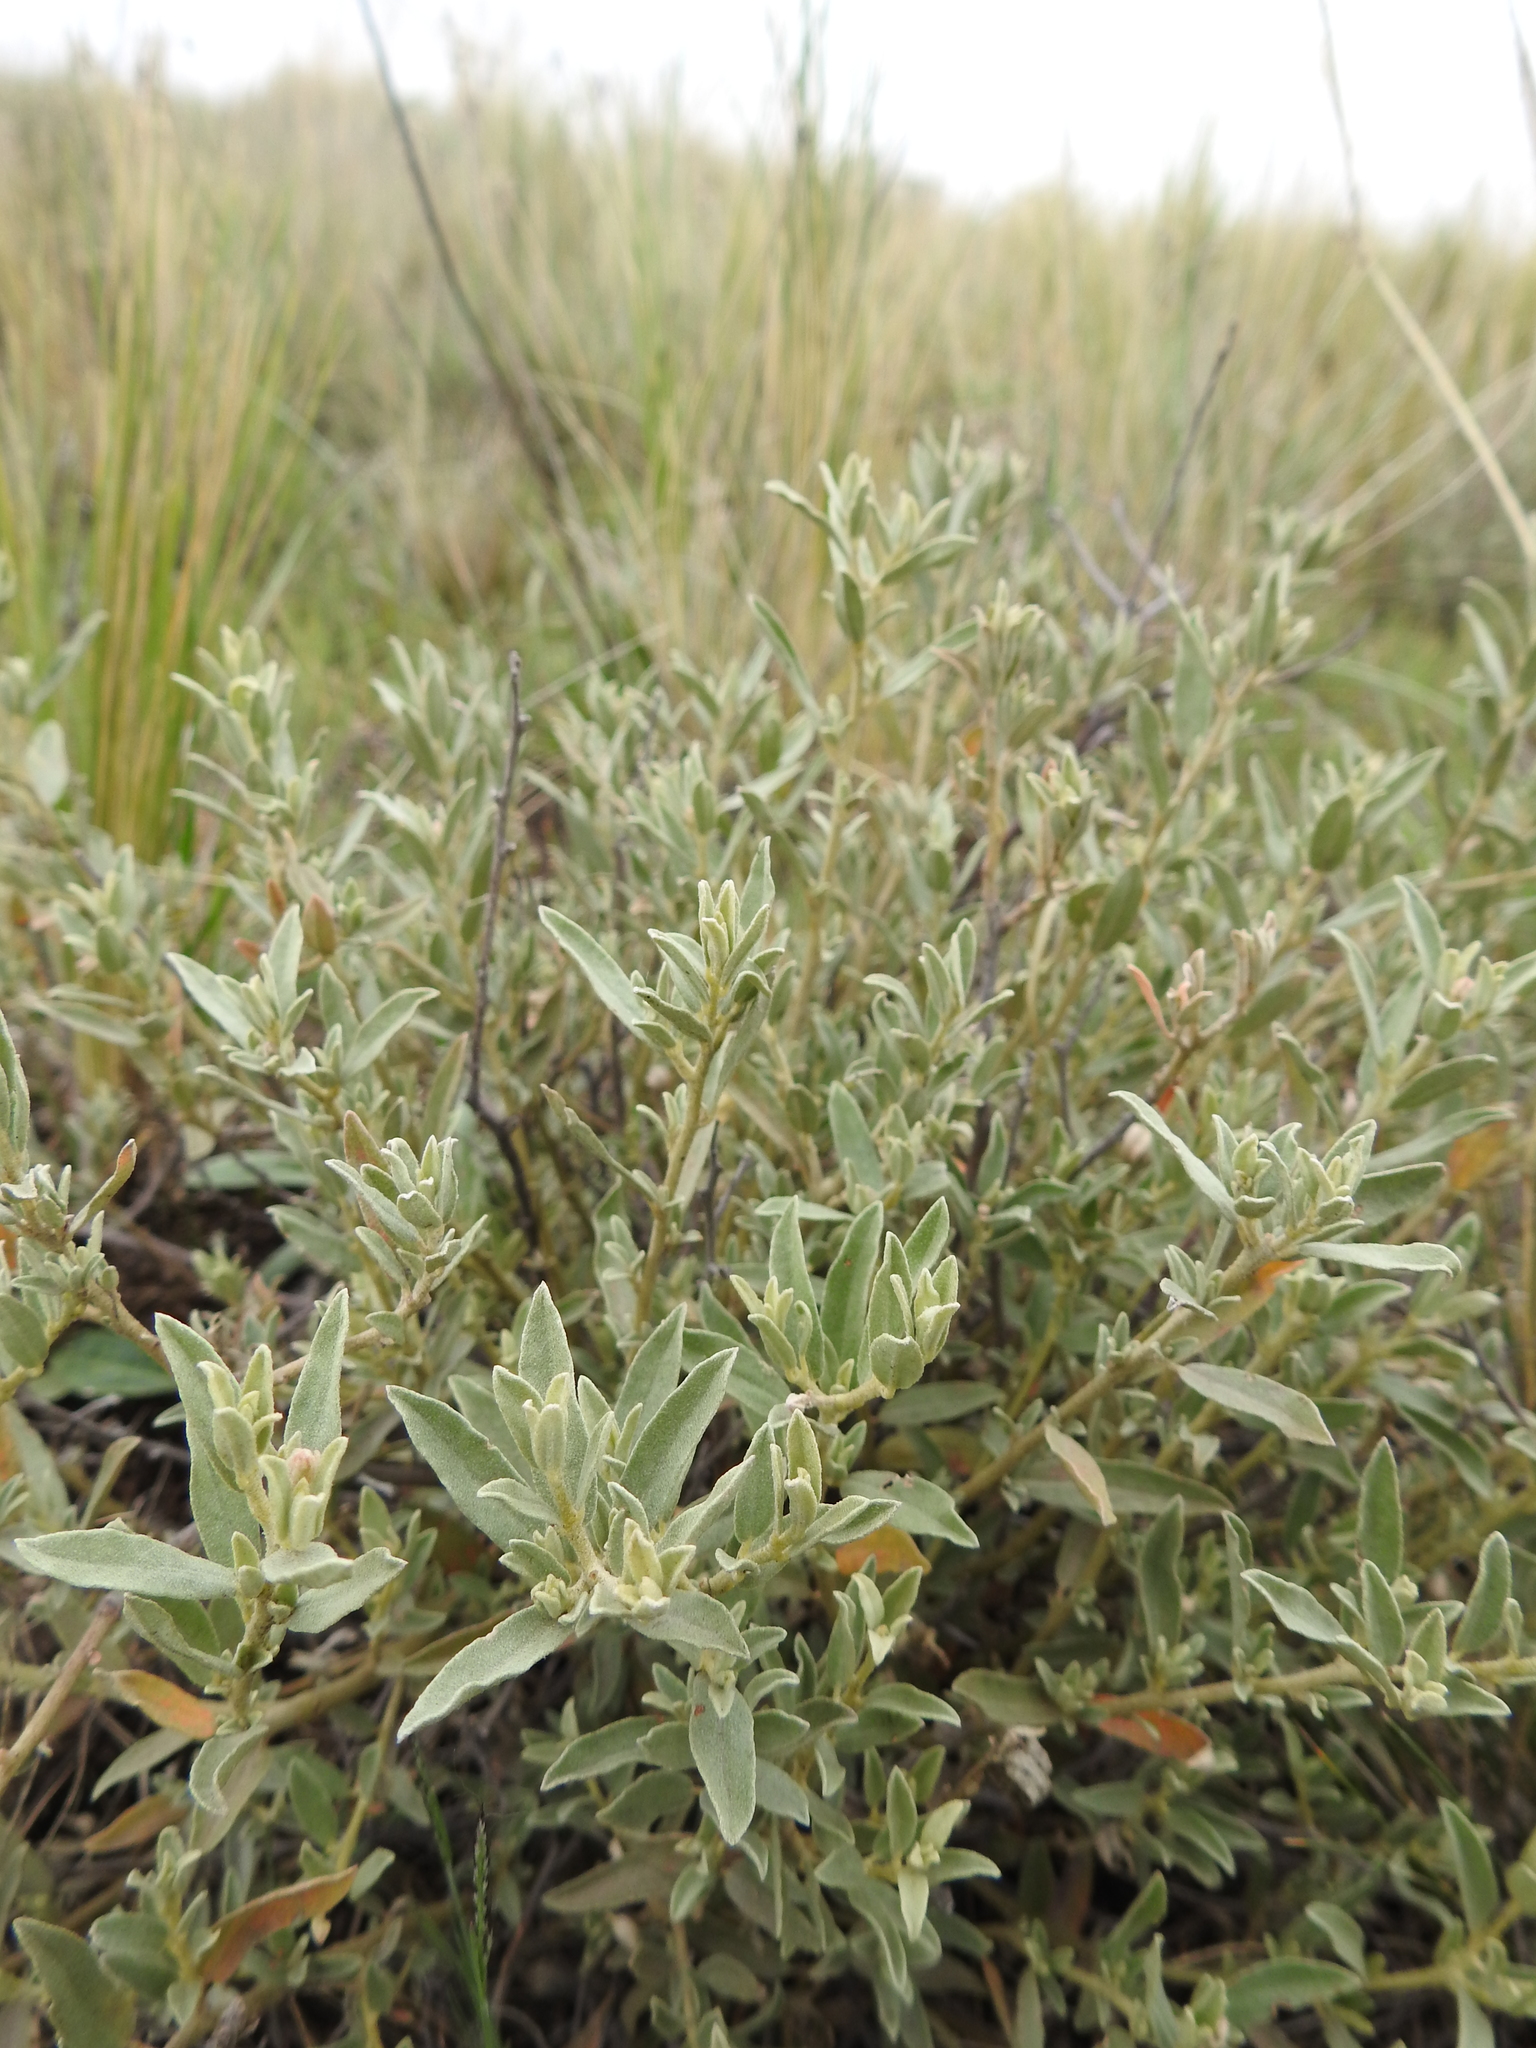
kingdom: Plantae
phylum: Tracheophyta
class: Magnoliopsida
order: Malpighiales
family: Euphorbiaceae
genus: Croton
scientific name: Croton argentinus
